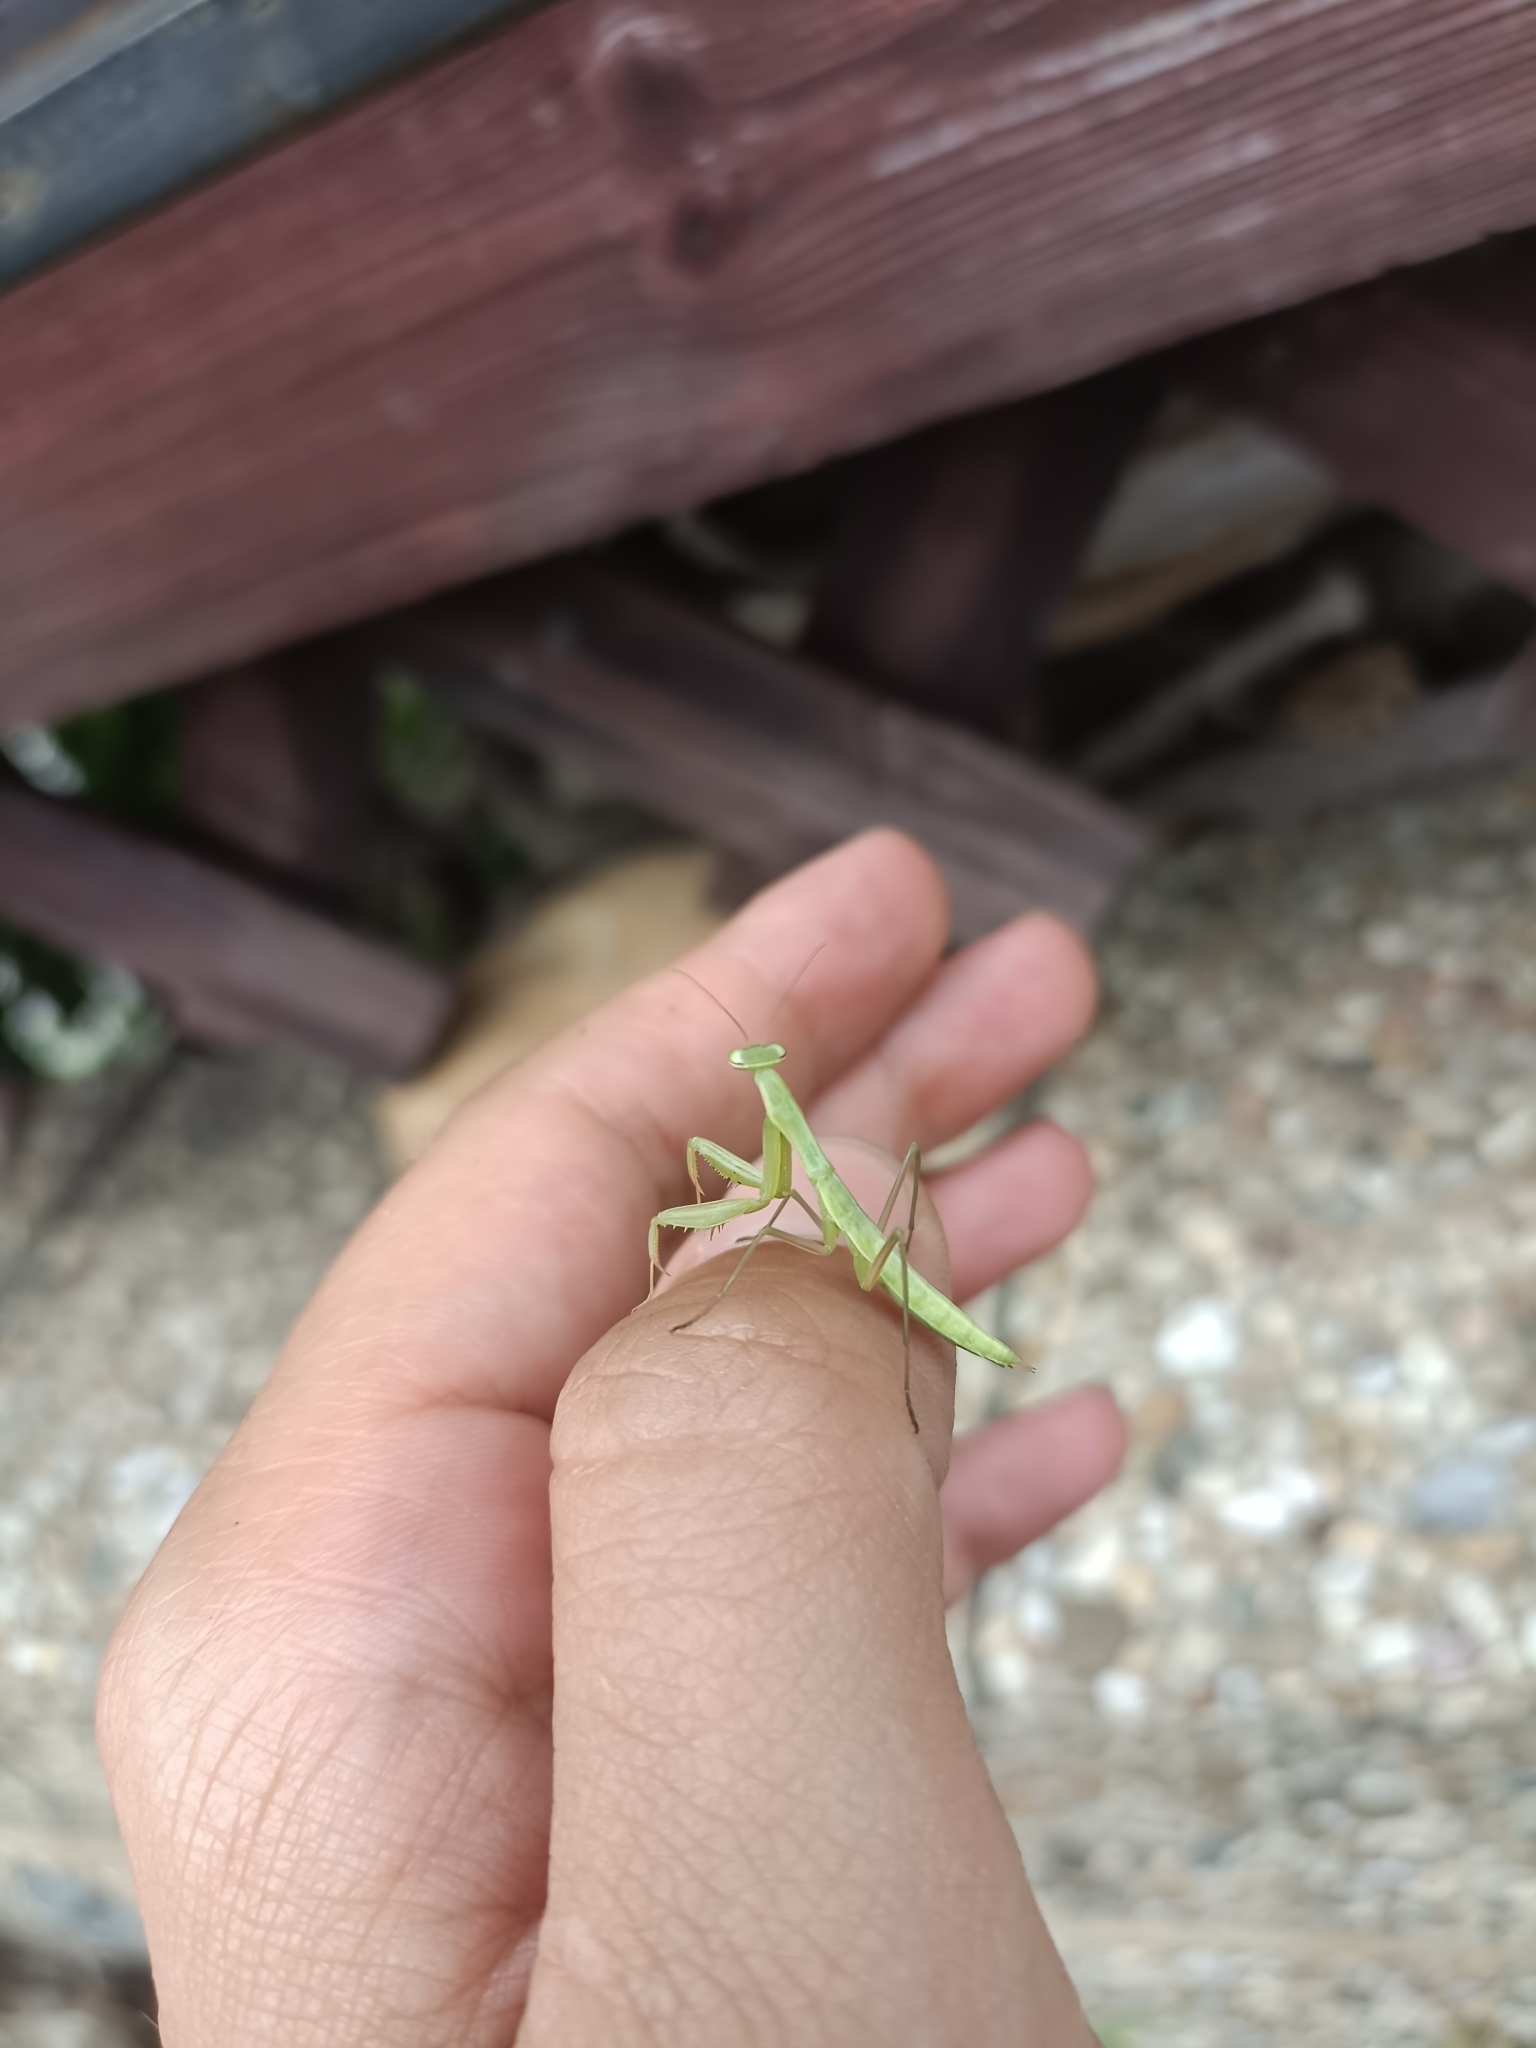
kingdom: Animalia
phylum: Arthropoda
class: Insecta
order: Mantodea
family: Mantidae
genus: Mantis
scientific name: Mantis religiosa
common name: Praying mantis
